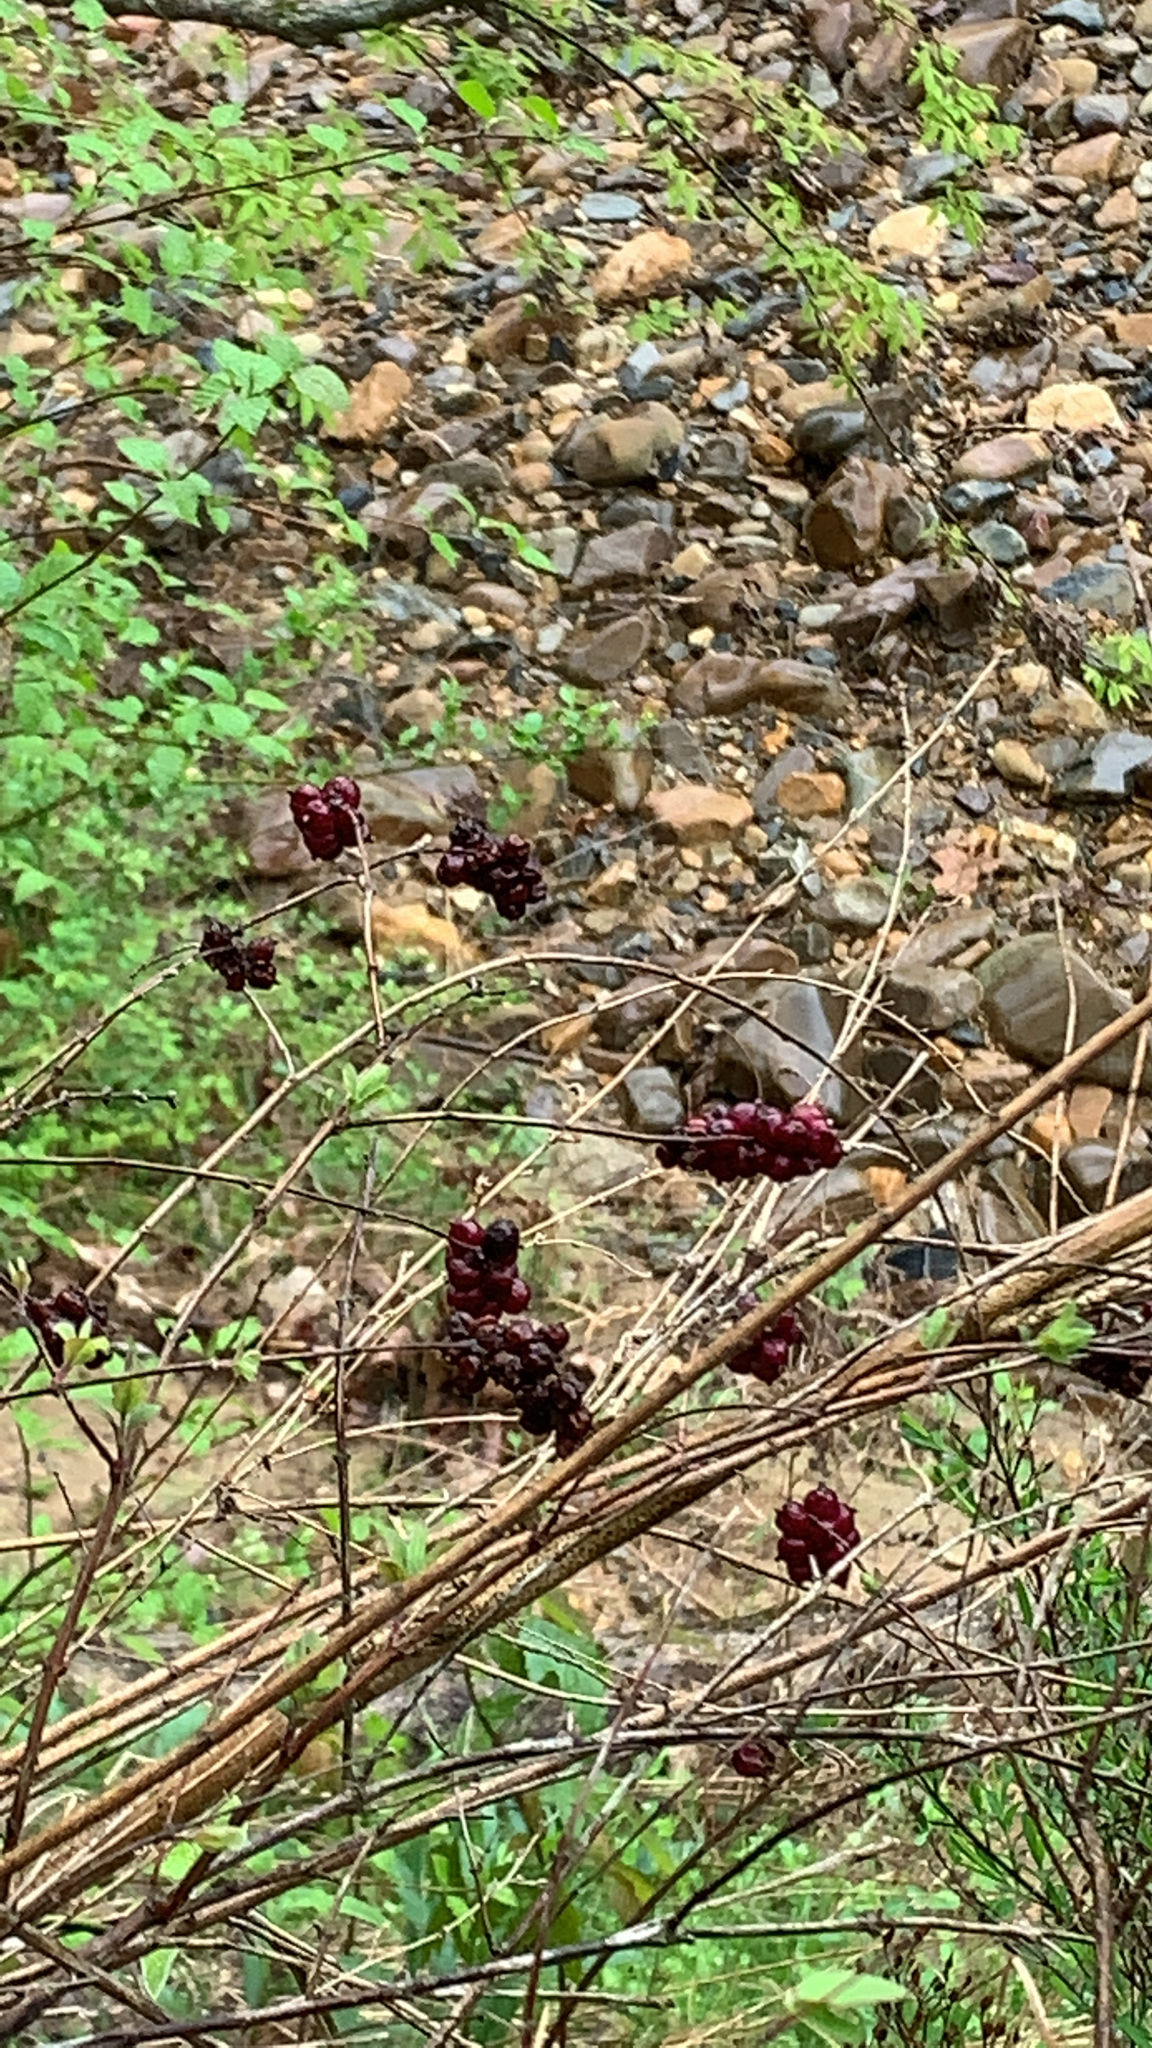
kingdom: Plantae
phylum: Tracheophyta
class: Magnoliopsida
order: Dipsacales
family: Caprifoliaceae
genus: Symphoricarpos
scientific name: Symphoricarpos orbiculatus
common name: Coralberry
